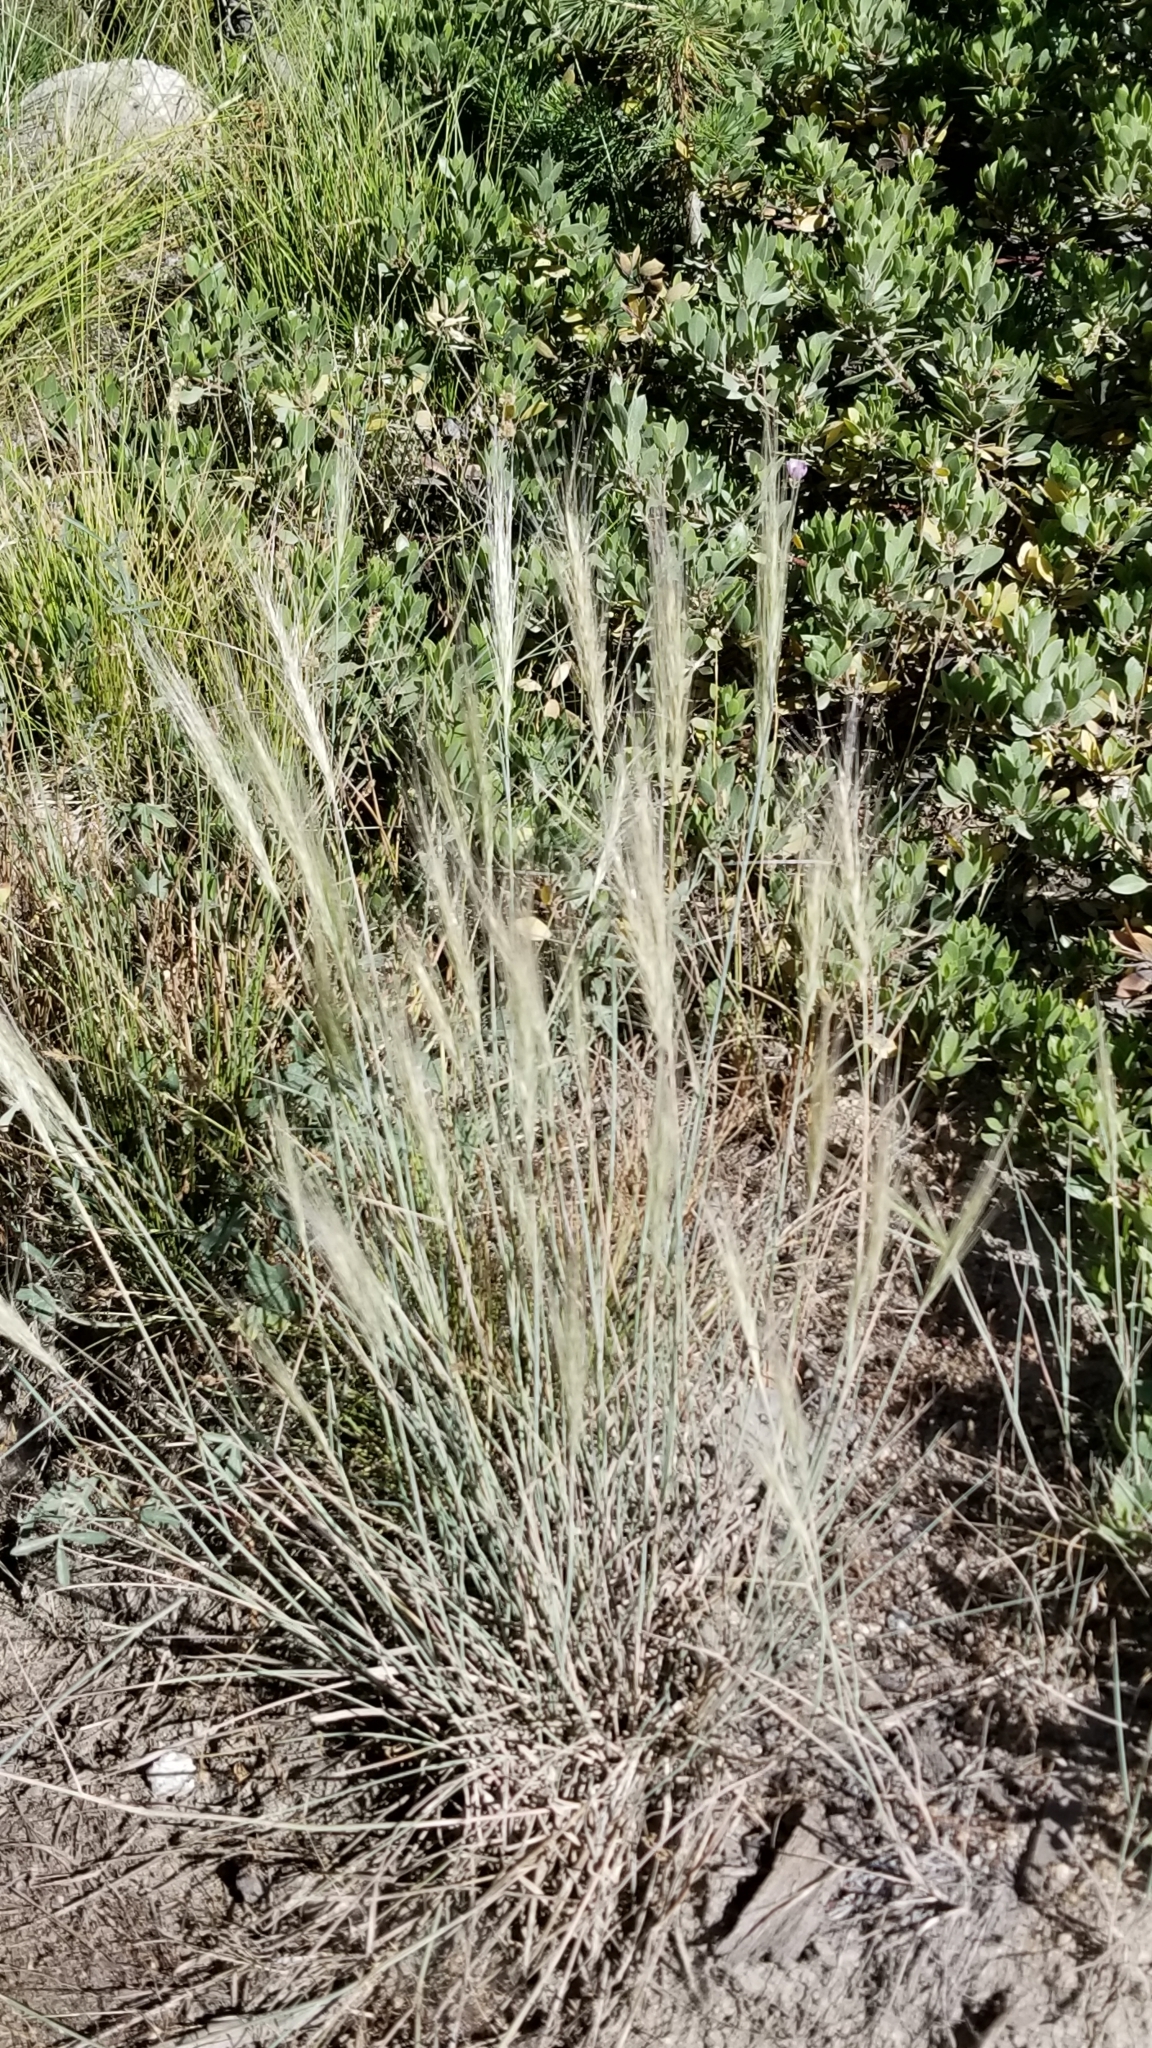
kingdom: Plantae
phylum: Tracheophyta
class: Liliopsida
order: Poales
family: Poaceae
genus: Elymus
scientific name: Elymus elymoides
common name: Bottlebrush squirreltail
